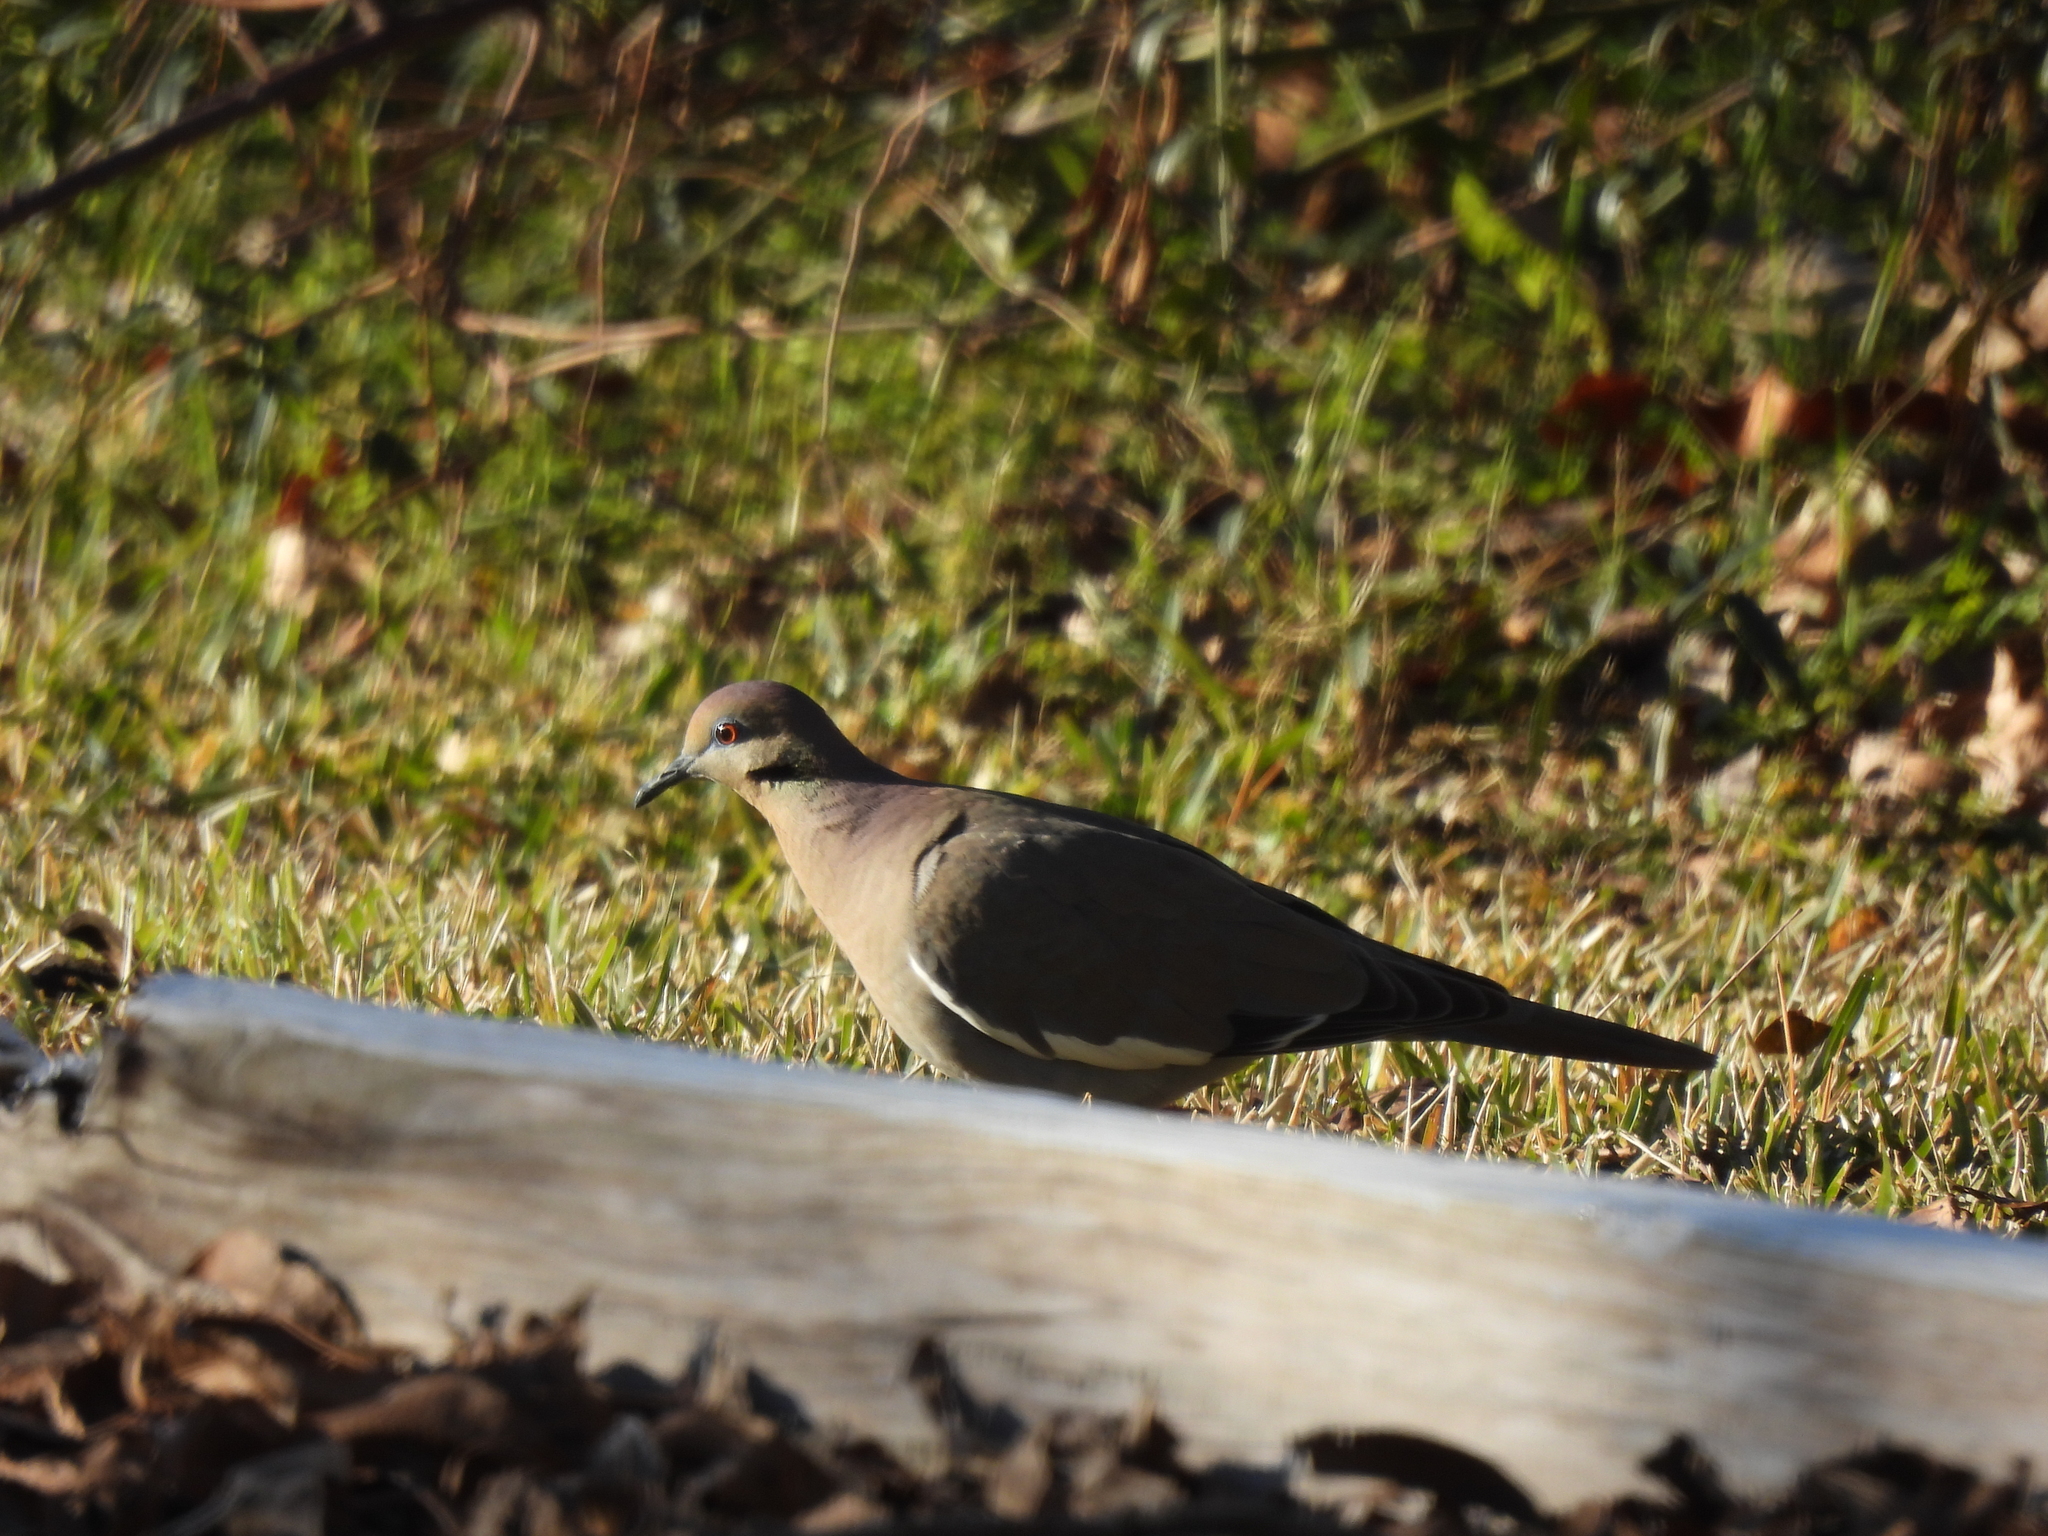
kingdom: Animalia
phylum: Chordata
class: Aves
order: Columbiformes
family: Columbidae
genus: Zenaida
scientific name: Zenaida asiatica
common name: White-winged dove
